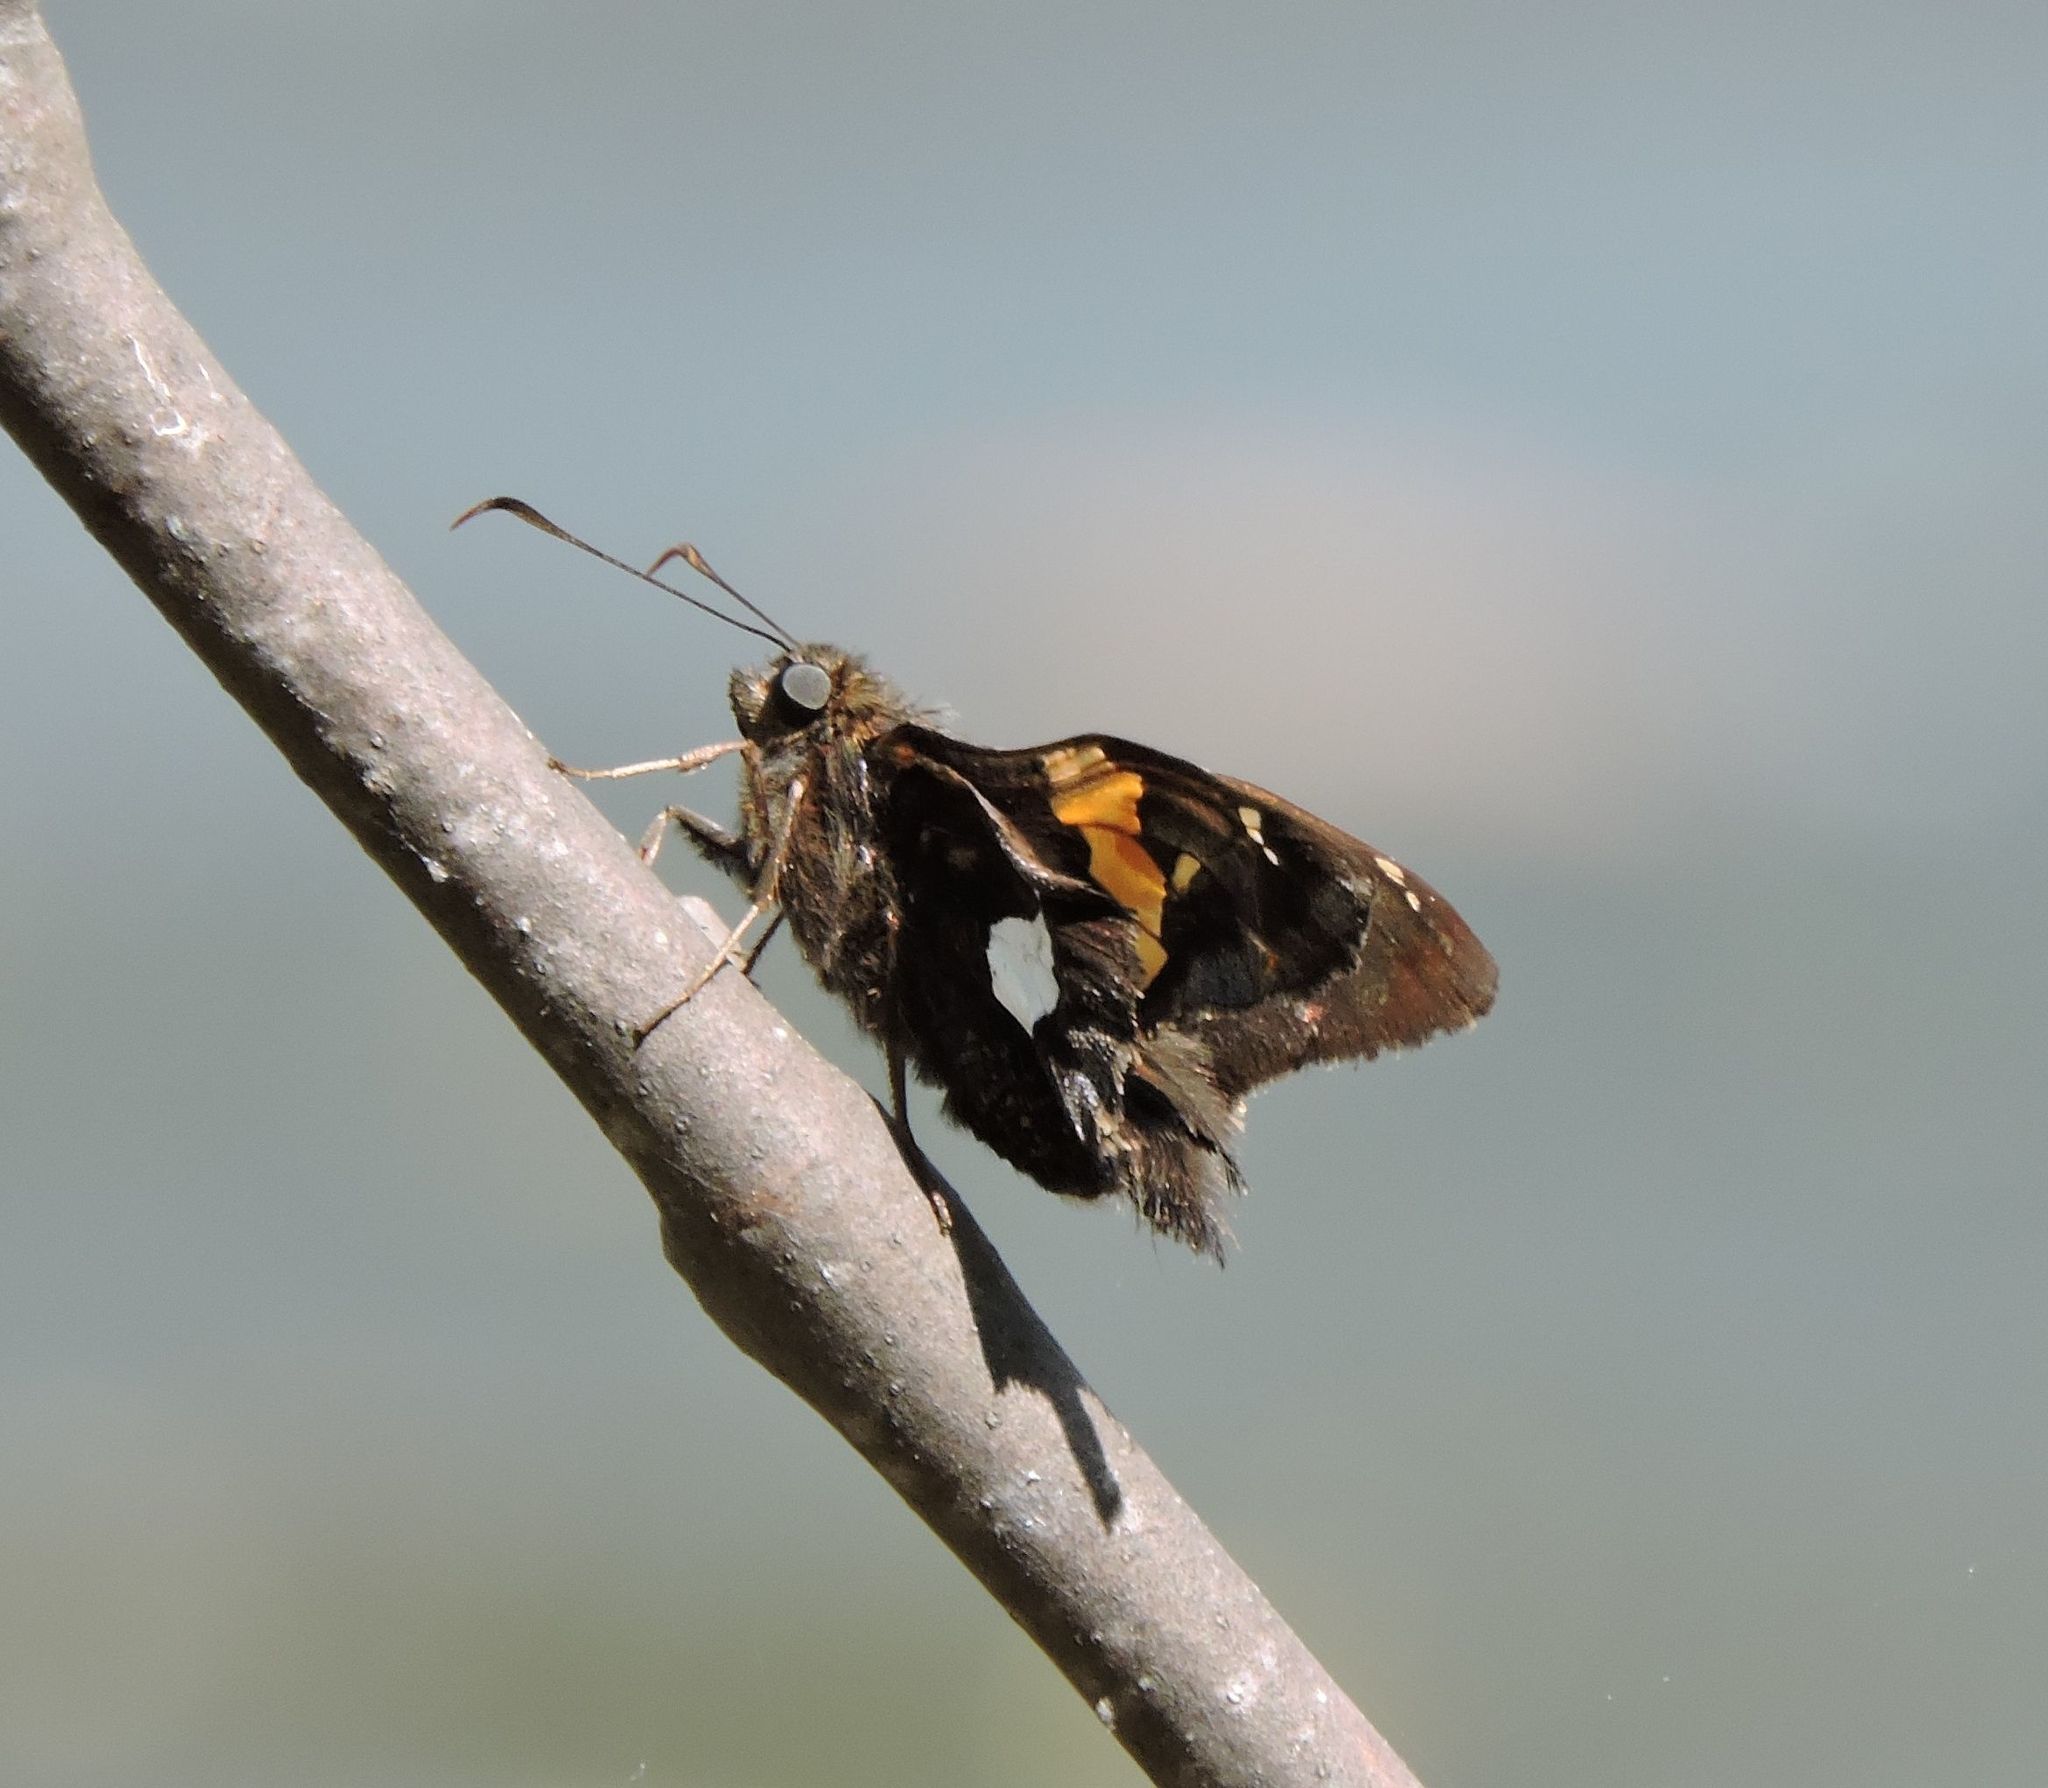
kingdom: Animalia
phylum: Arthropoda
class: Insecta
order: Lepidoptera
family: Hesperiidae
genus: Epargyreus
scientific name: Epargyreus clarus
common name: Silver-spotted skipper
